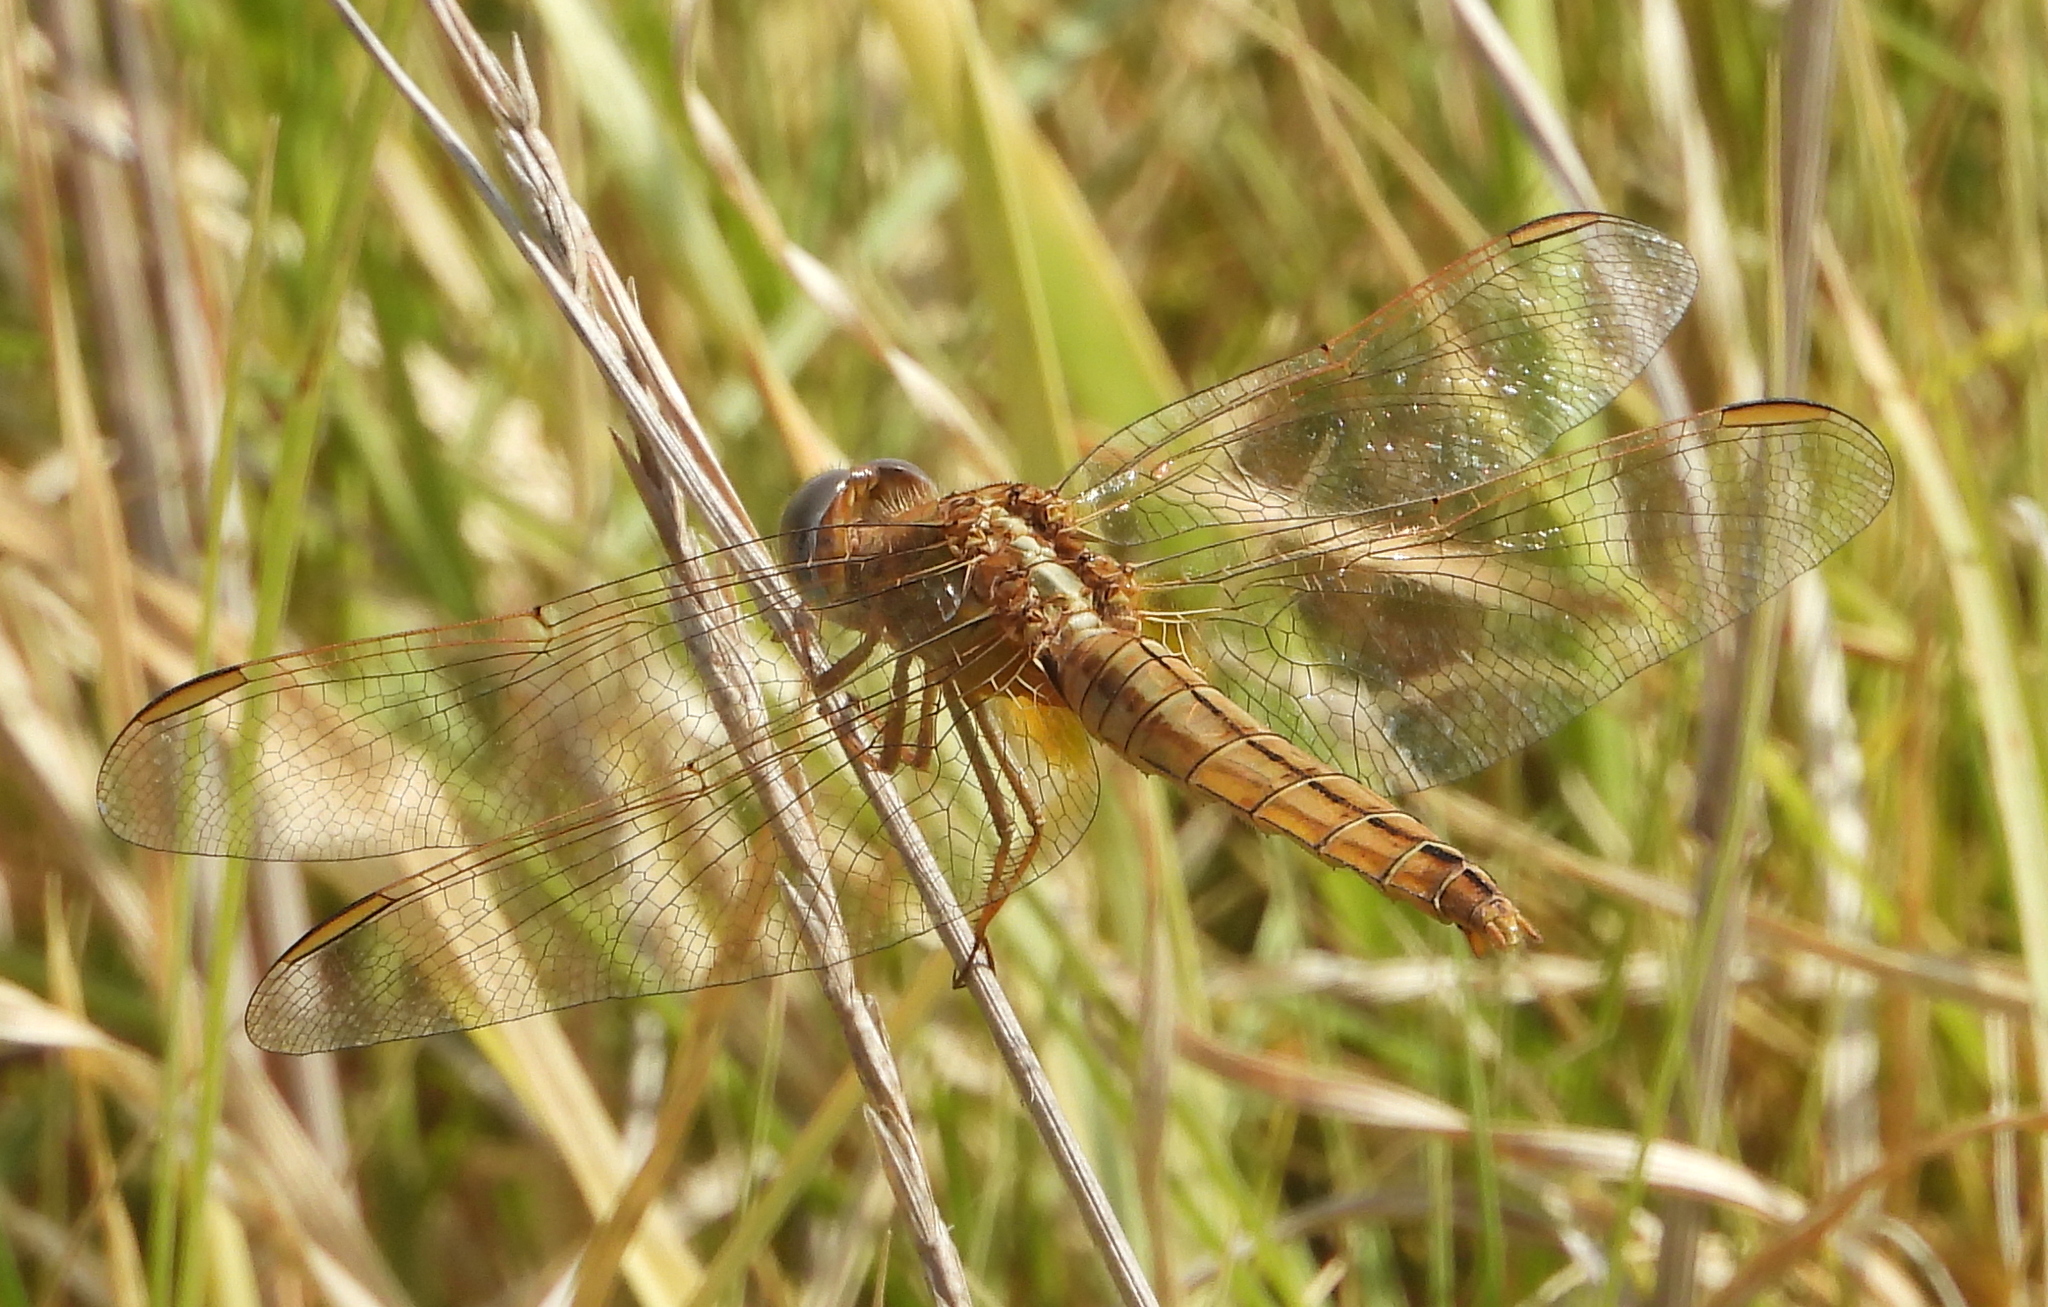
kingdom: Animalia
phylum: Arthropoda
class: Insecta
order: Odonata
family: Libellulidae
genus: Crocothemis
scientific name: Crocothemis erythraea
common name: Scarlet dragonfly
